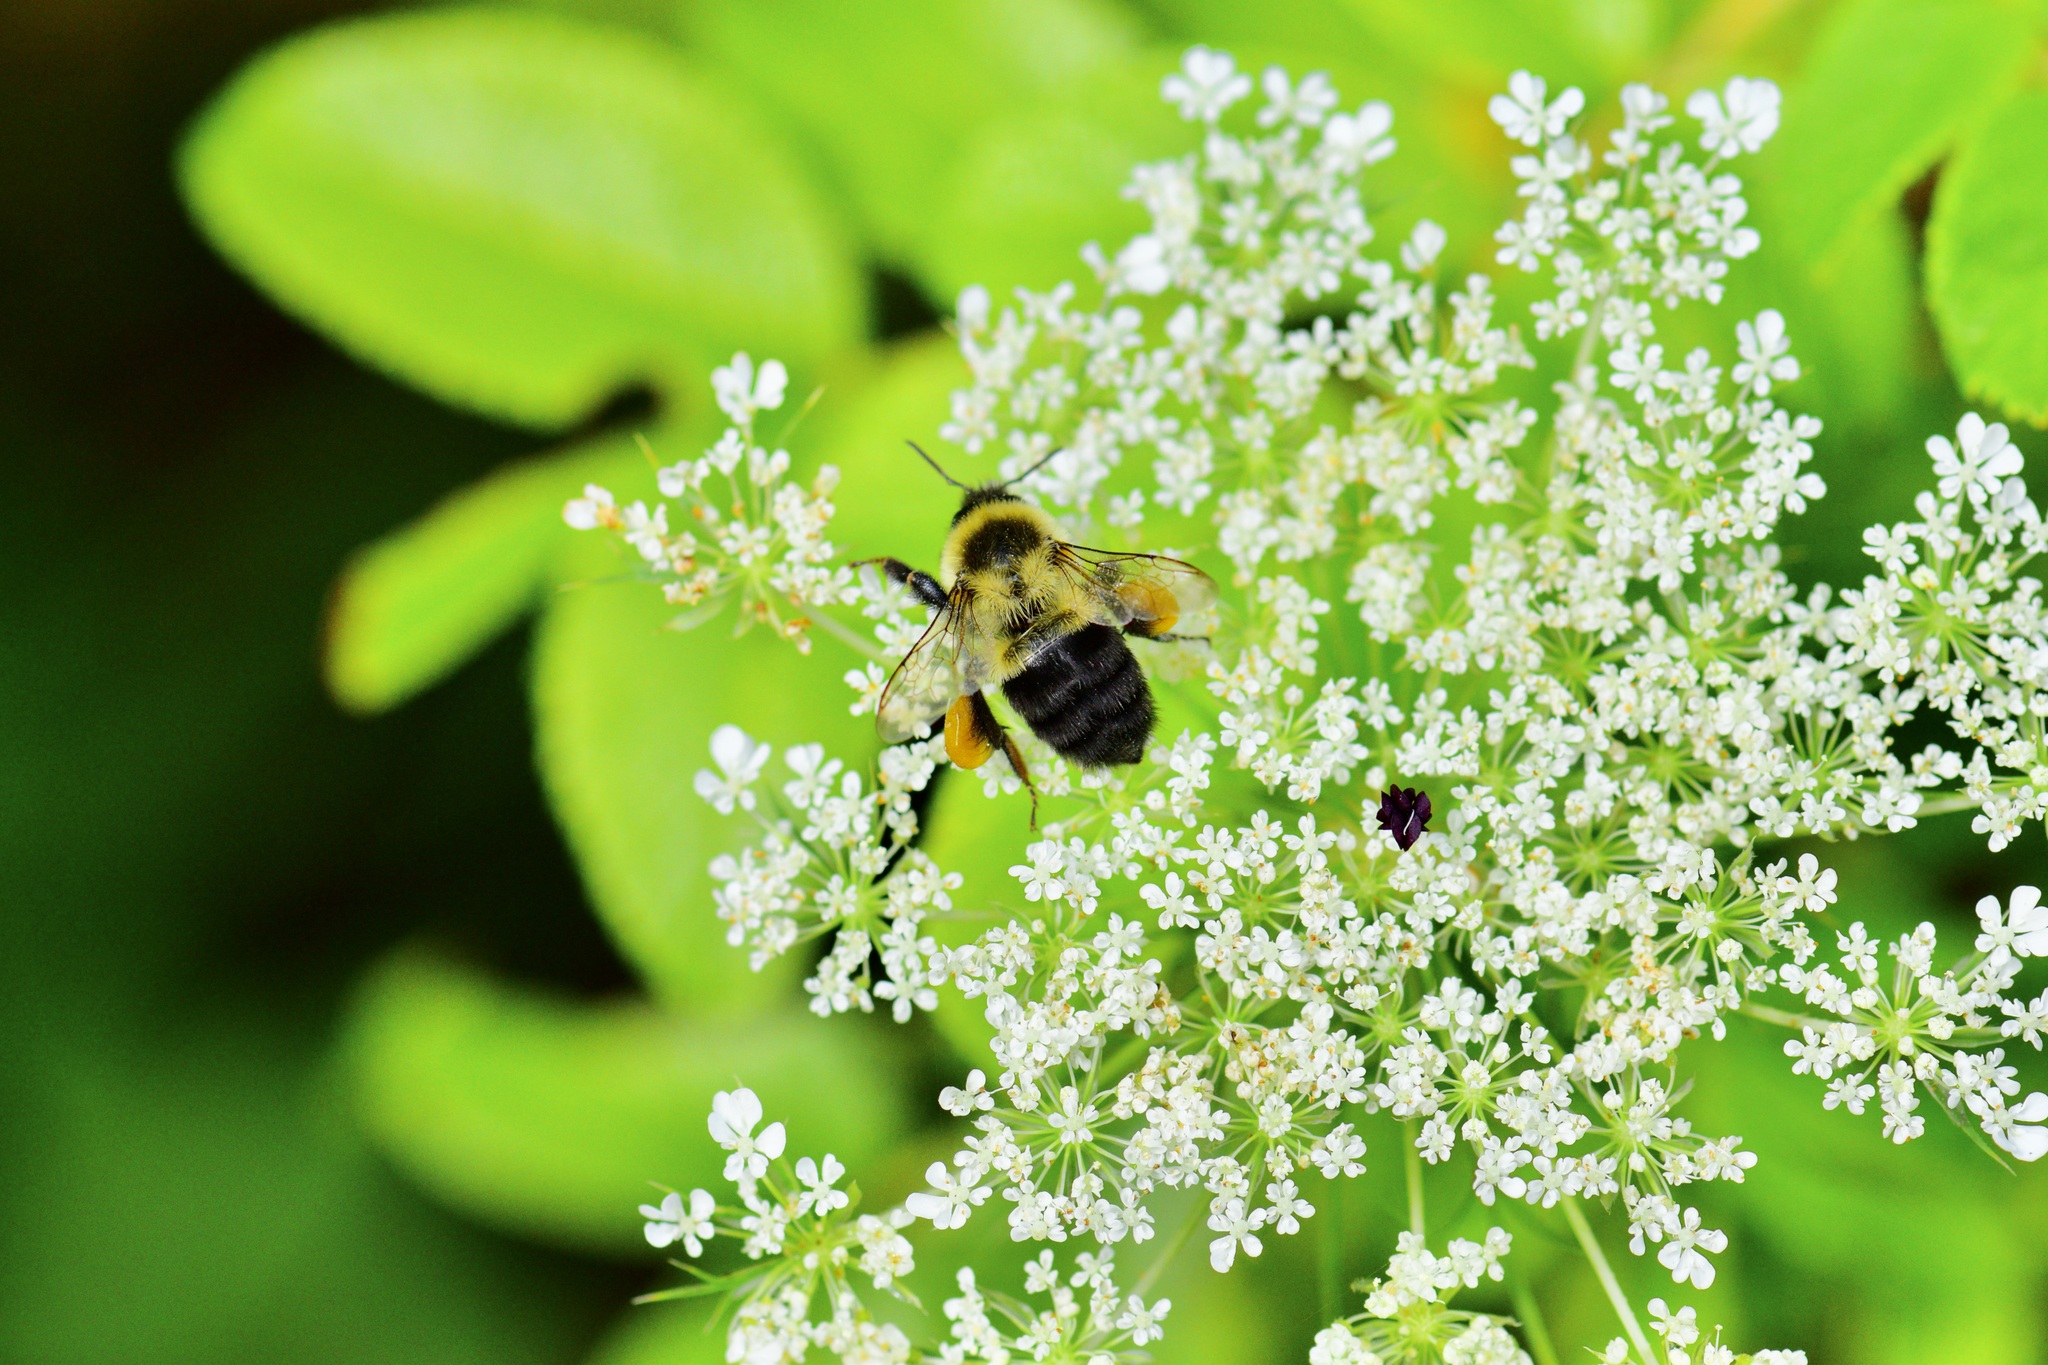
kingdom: Animalia
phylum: Arthropoda
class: Insecta
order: Hymenoptera
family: Apidae
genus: Bombus
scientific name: Bombus impatiens
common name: Common eastern bumble bee
